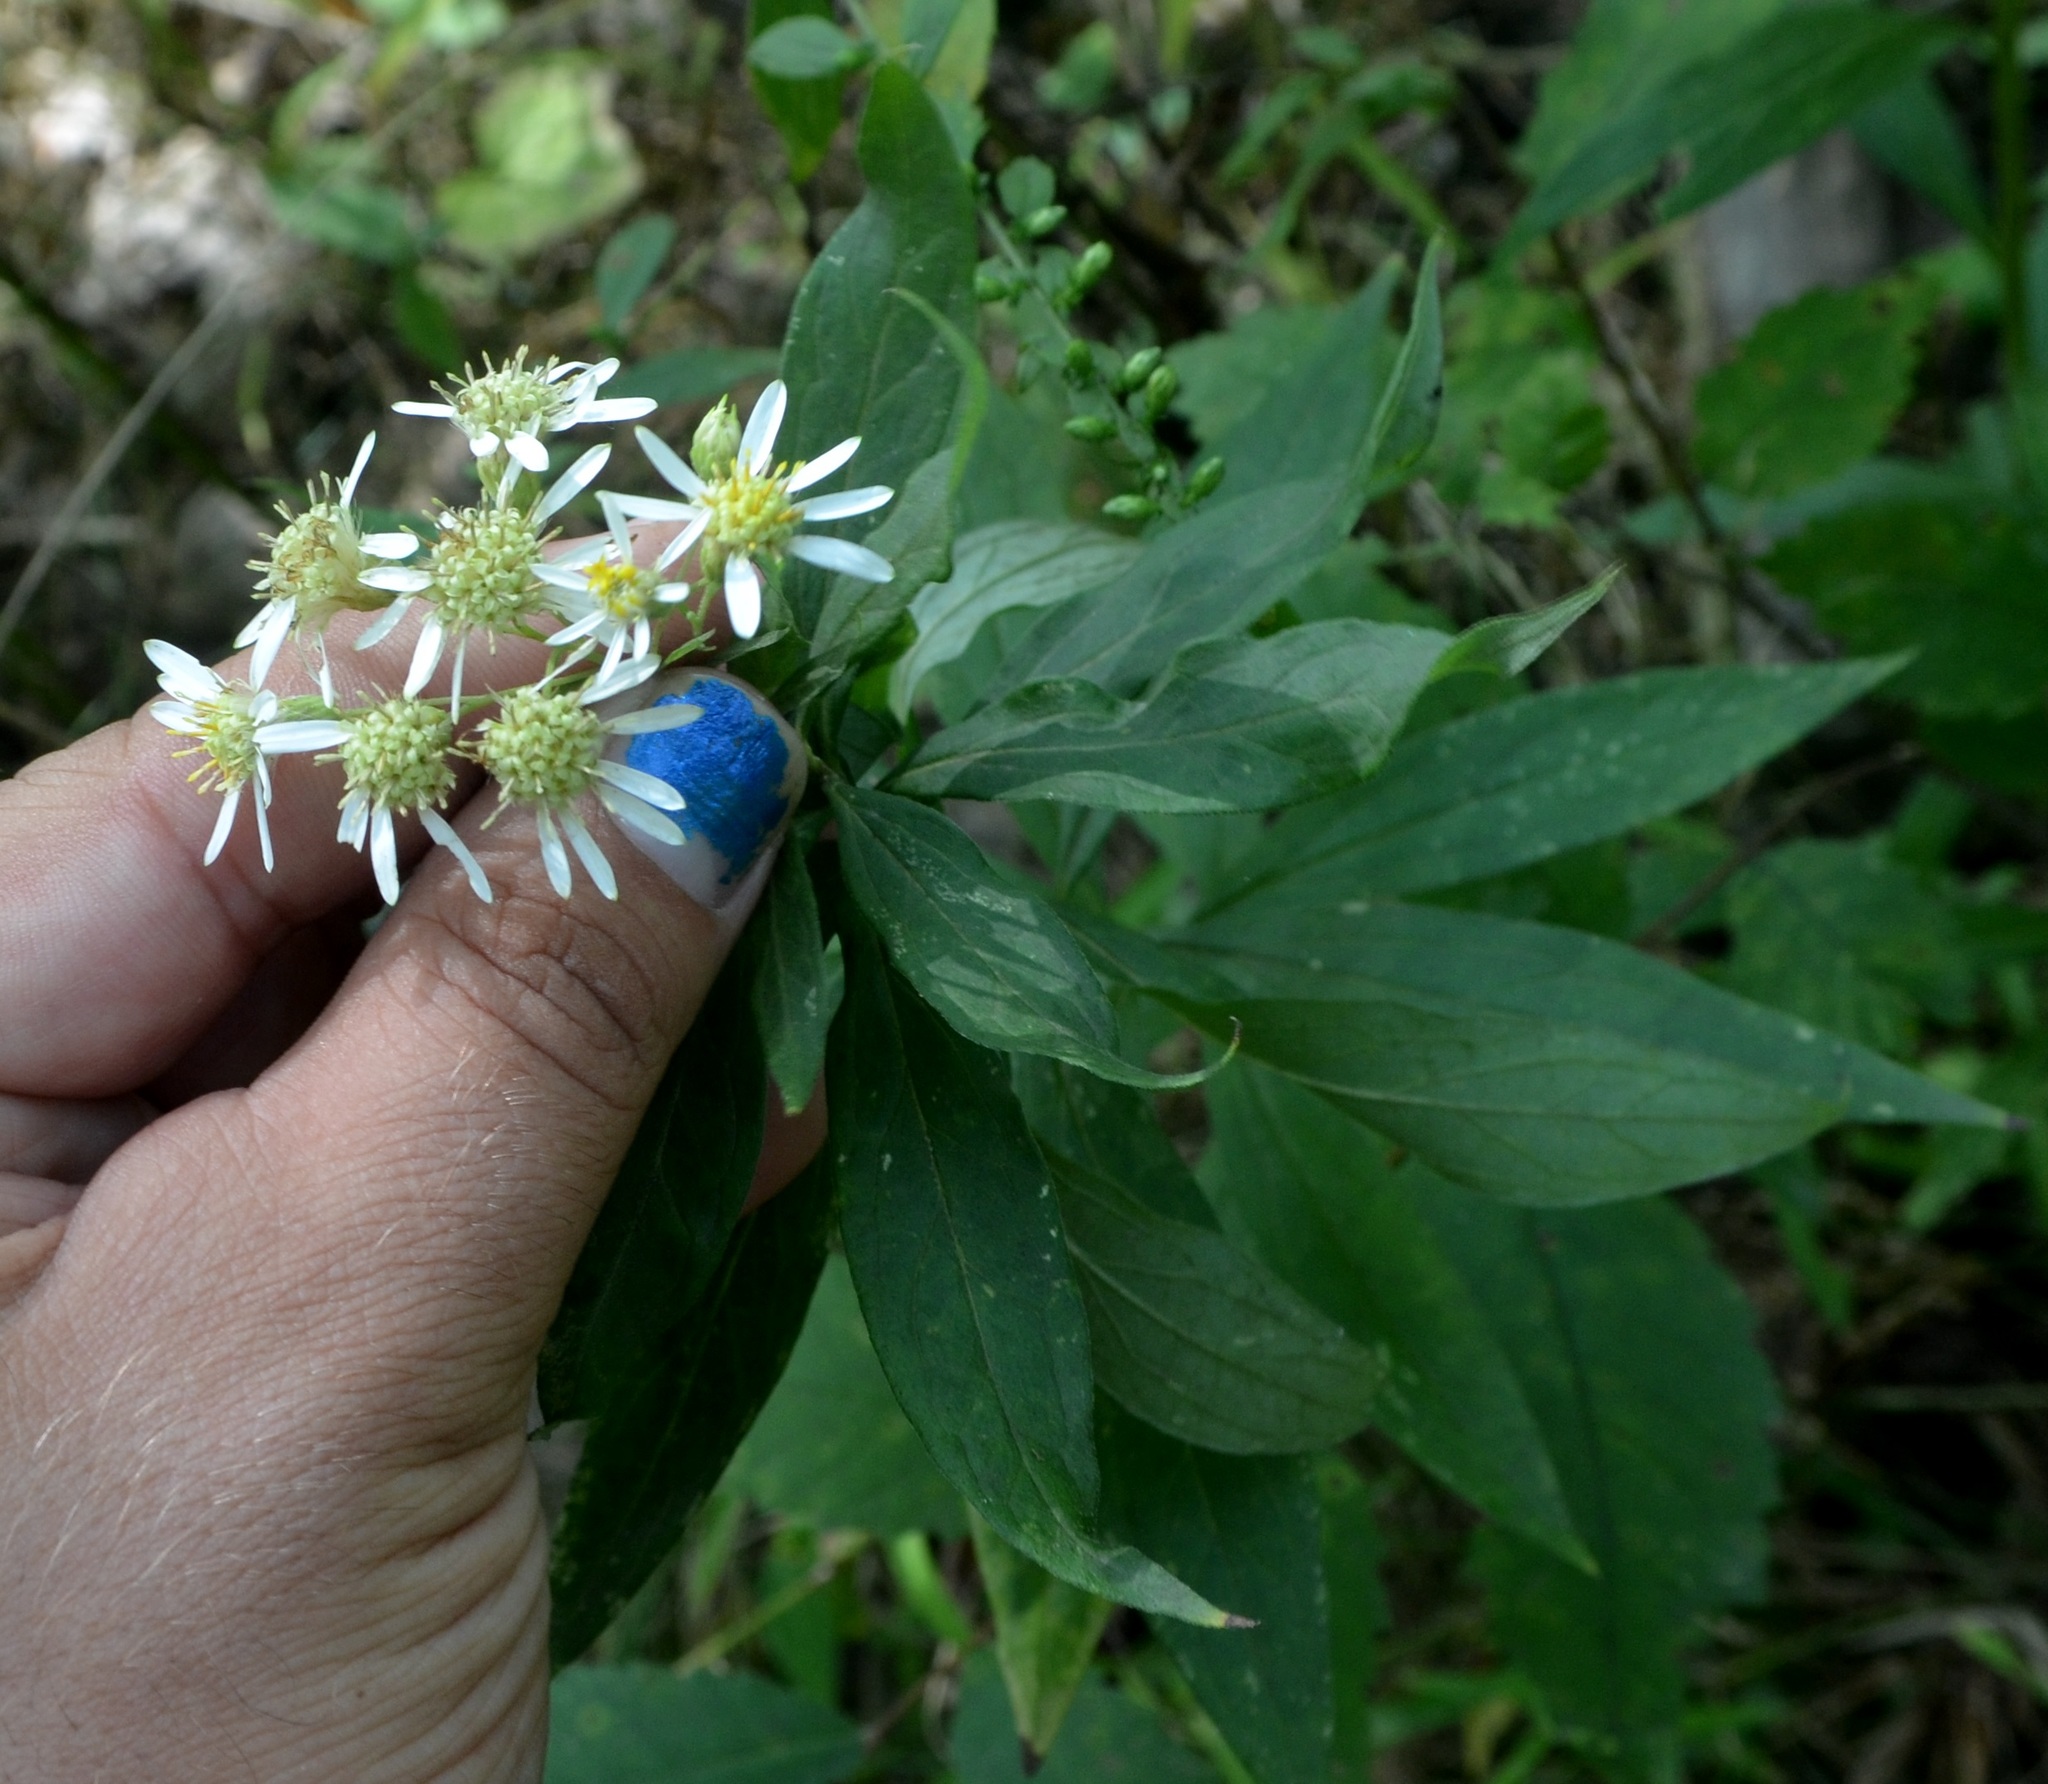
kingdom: Plantae
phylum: Tracheophyta
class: Magnoliopsida
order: Asterales
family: Asteraceae
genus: Doellingeria
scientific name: Doellingeria umbellata
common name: Flat-top white aster
